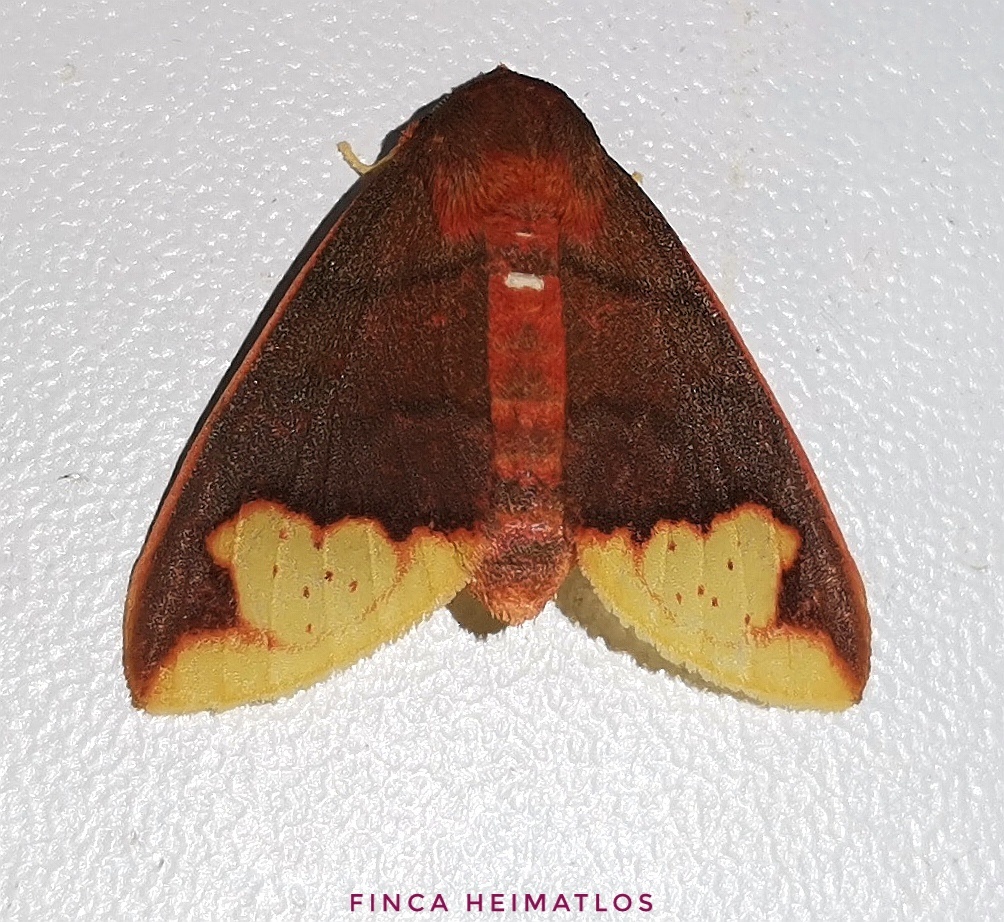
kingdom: Animalia
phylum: Arthropoda
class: Insecta
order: Lepidoptera
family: Erebidae
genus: Pseudepimolis
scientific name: Pseudepimolis incisa
